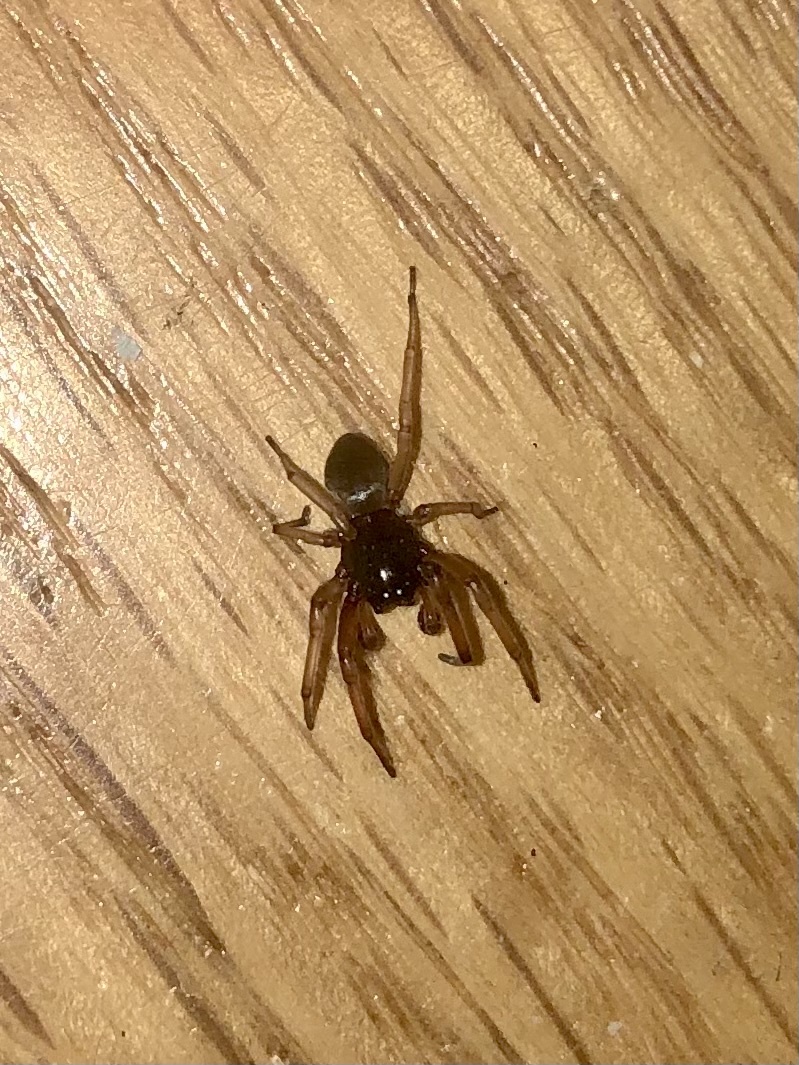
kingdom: Animalia
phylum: Arthropoda
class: Arachnida
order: Araneae
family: Trachelidae
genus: Trachelas
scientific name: Trachelas tranquillus
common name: Broad-faced sac spider
